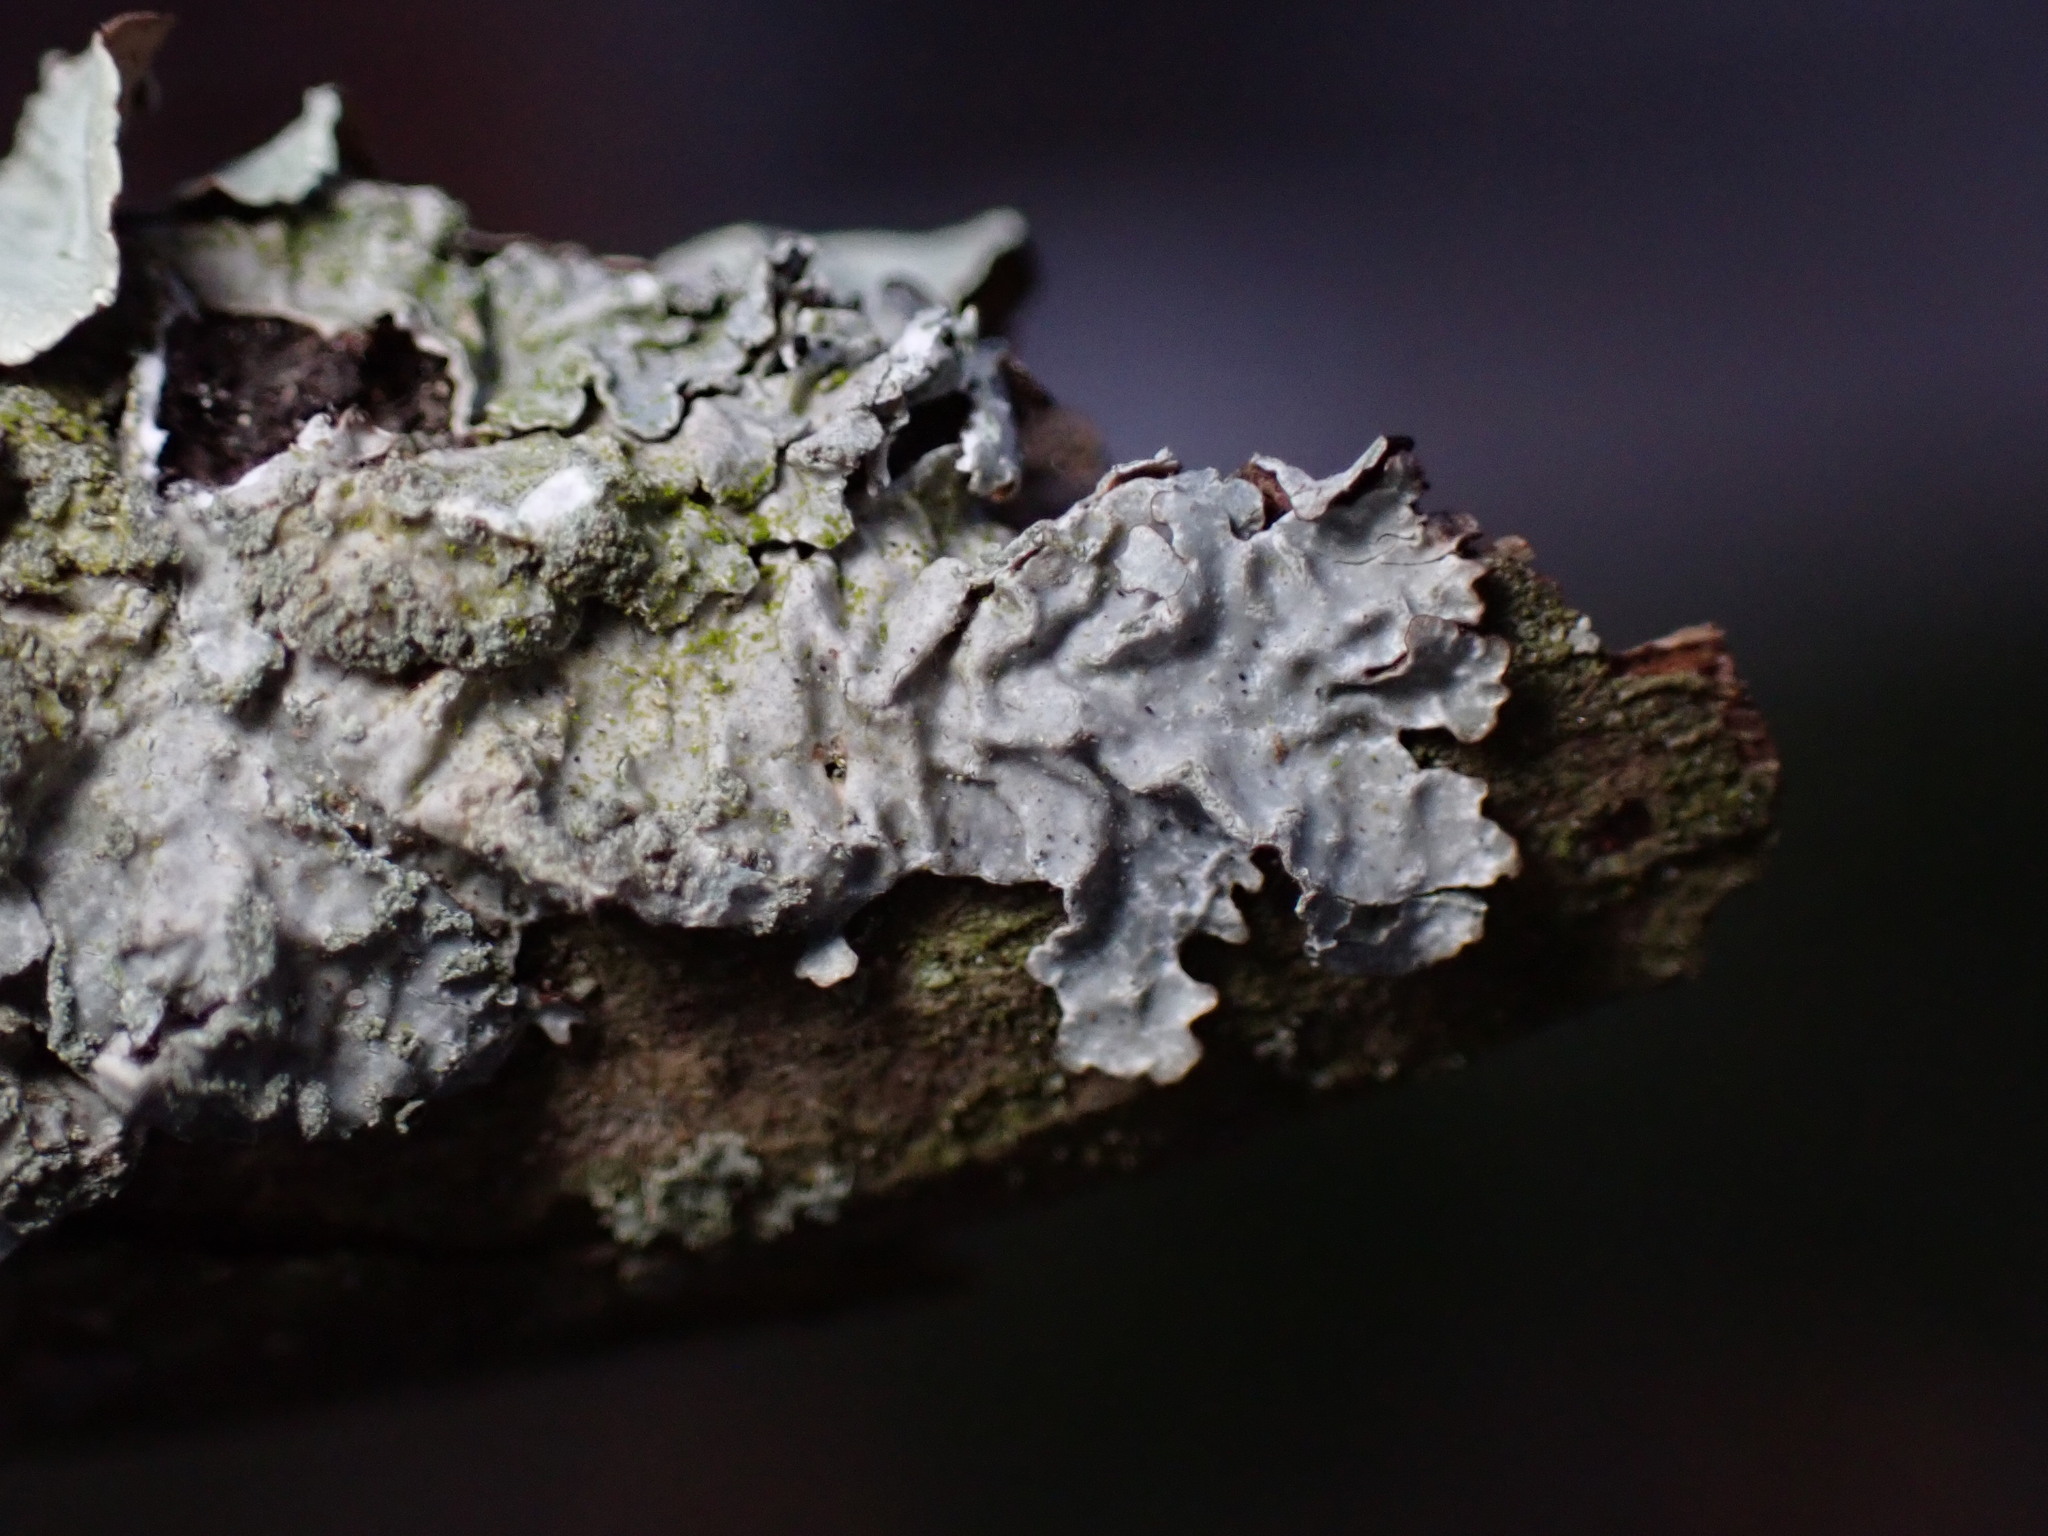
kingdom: Fungi
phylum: Ascomycota
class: Lecanoromycetes
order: Lecanorales
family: Parmeliaceae
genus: Parmelia
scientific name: Parmelia sulcata
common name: Netted shield lichen
